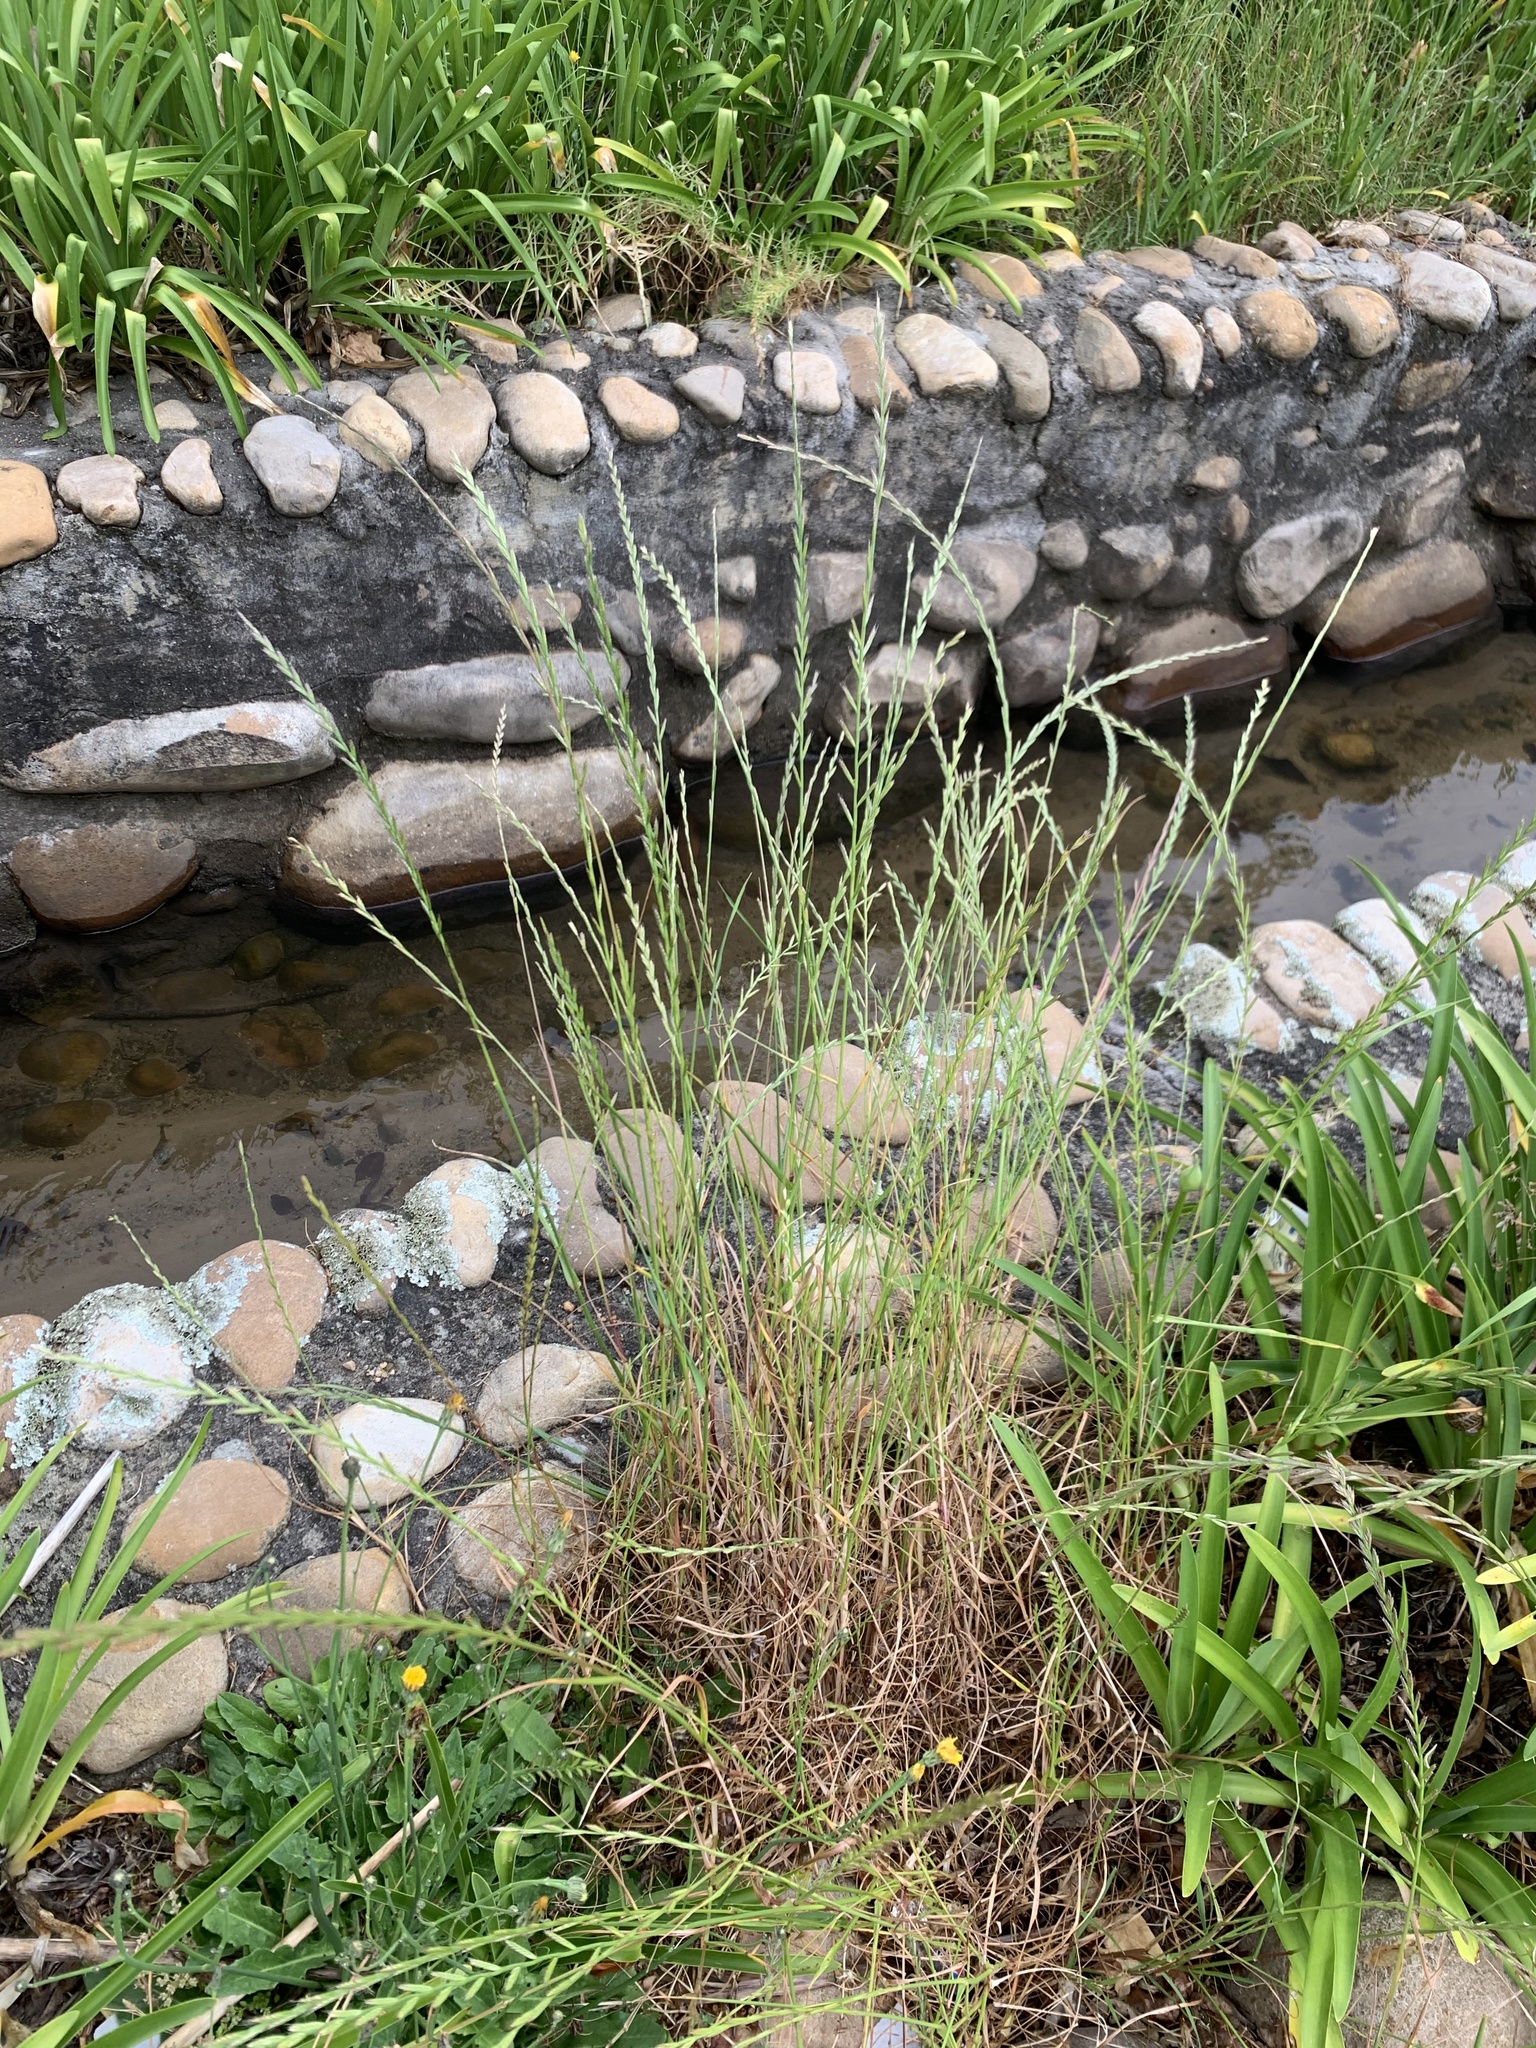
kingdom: Plantae
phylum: Tracheophyta
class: Liliopsida
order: Poales
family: Poaceae
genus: Lolium
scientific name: Lolium multiflorum
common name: Annual ryegrass
